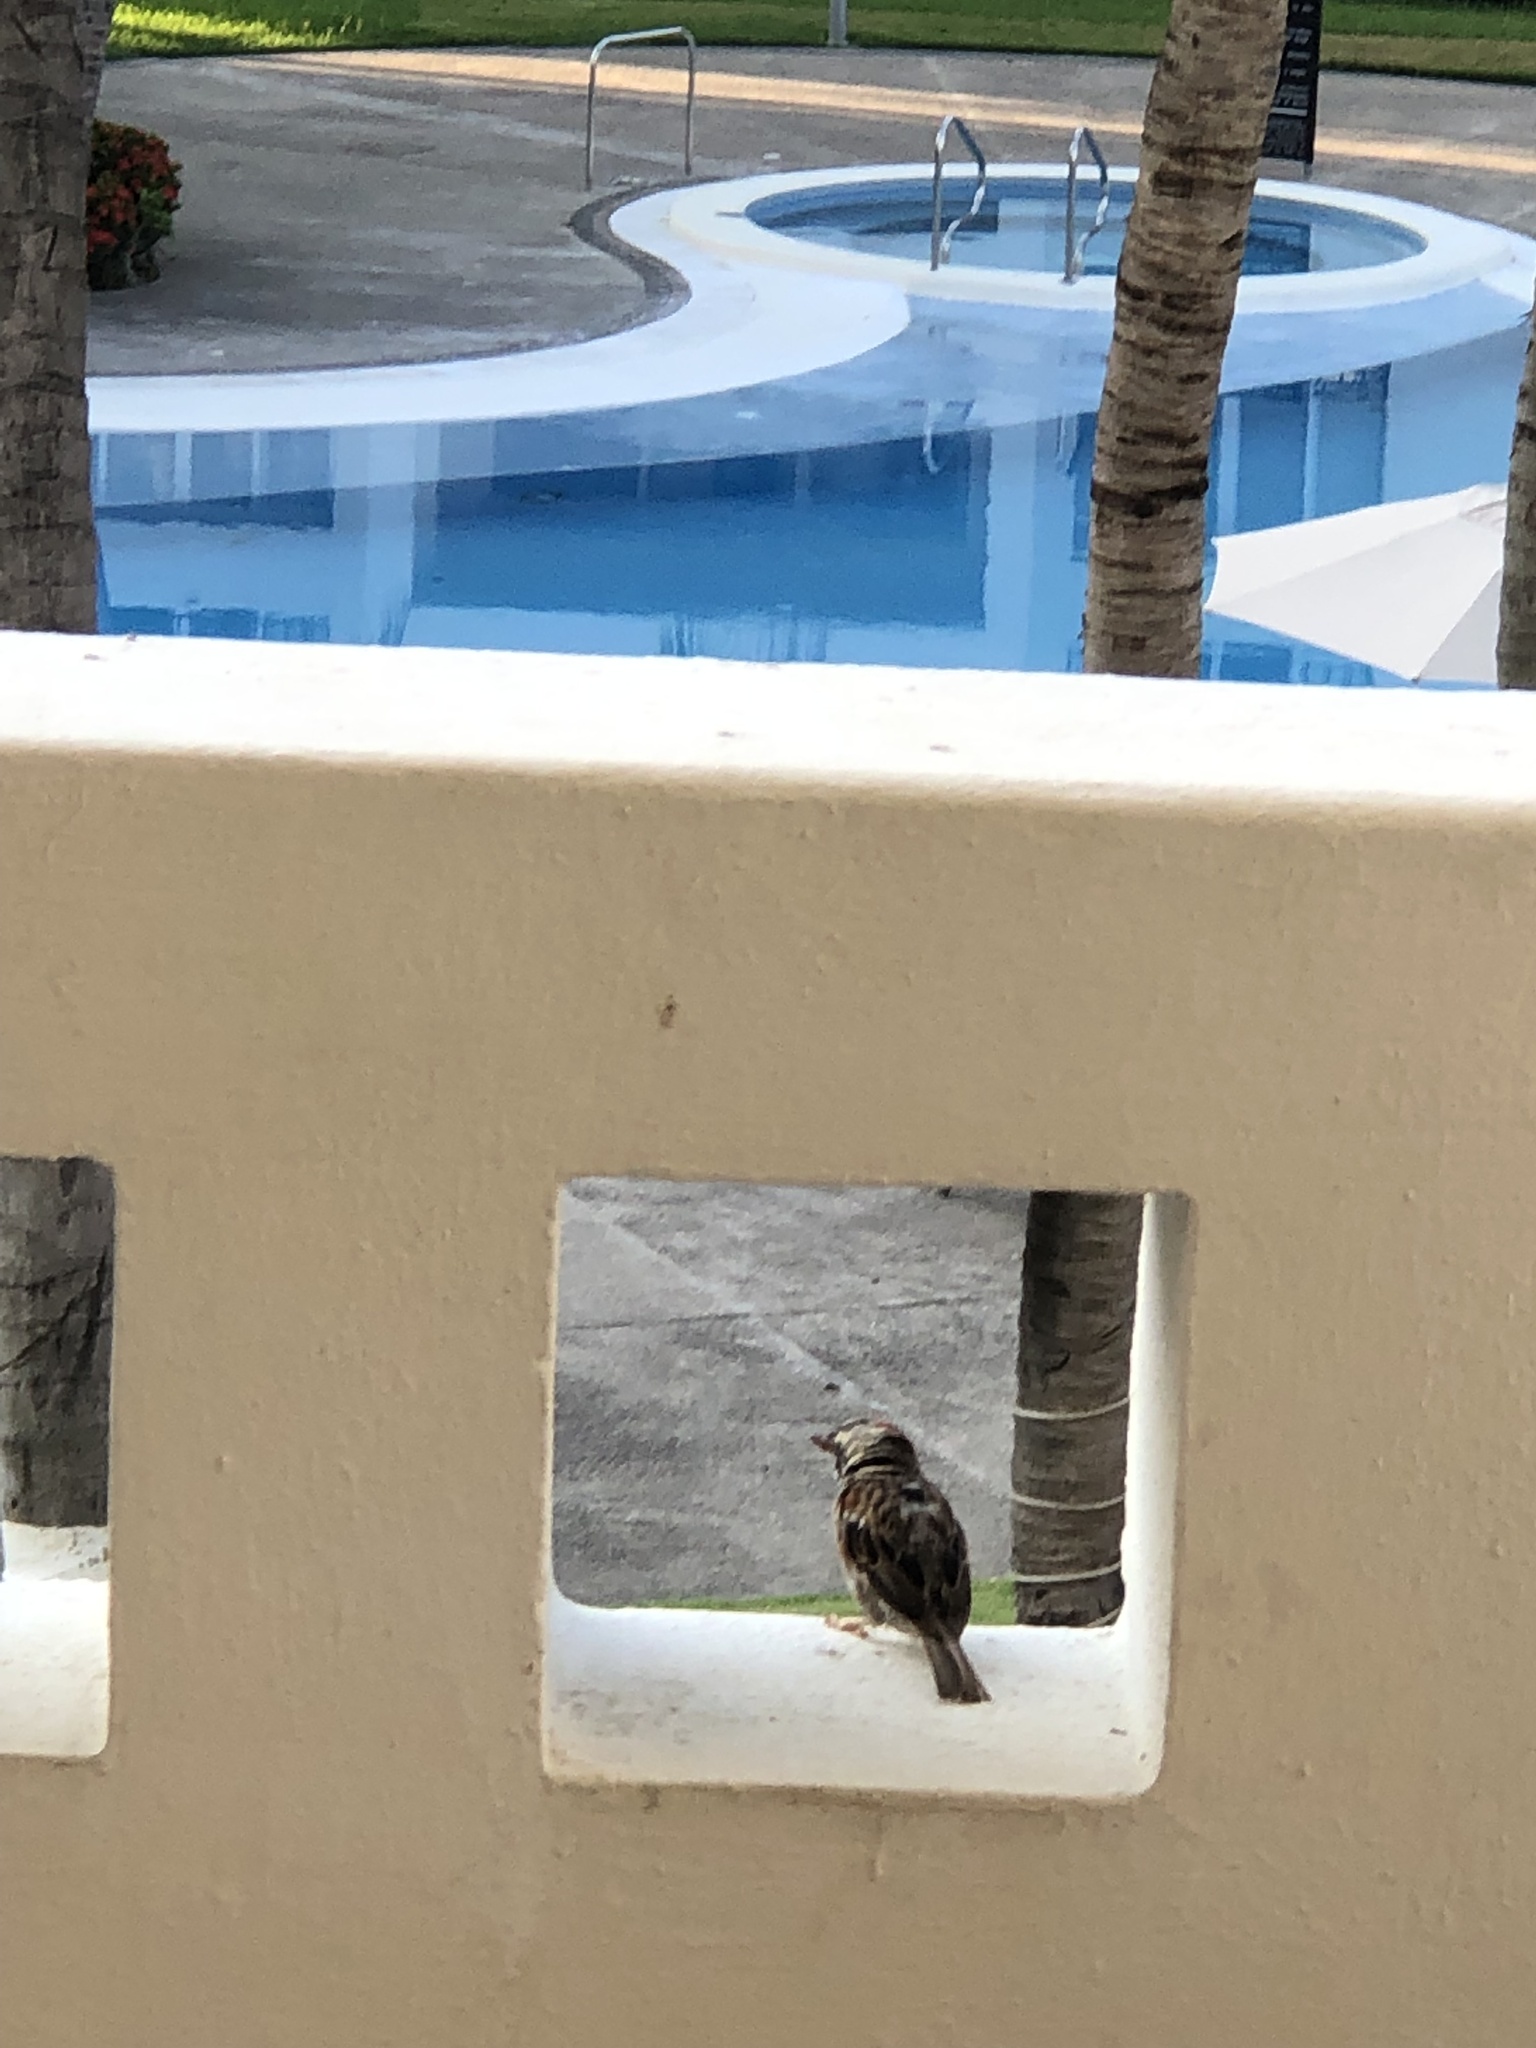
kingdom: Animalia
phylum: Chordata
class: Aves
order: Passeriformes
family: Passeridae
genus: Passer
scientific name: Passer domesticus
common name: House sparrow
